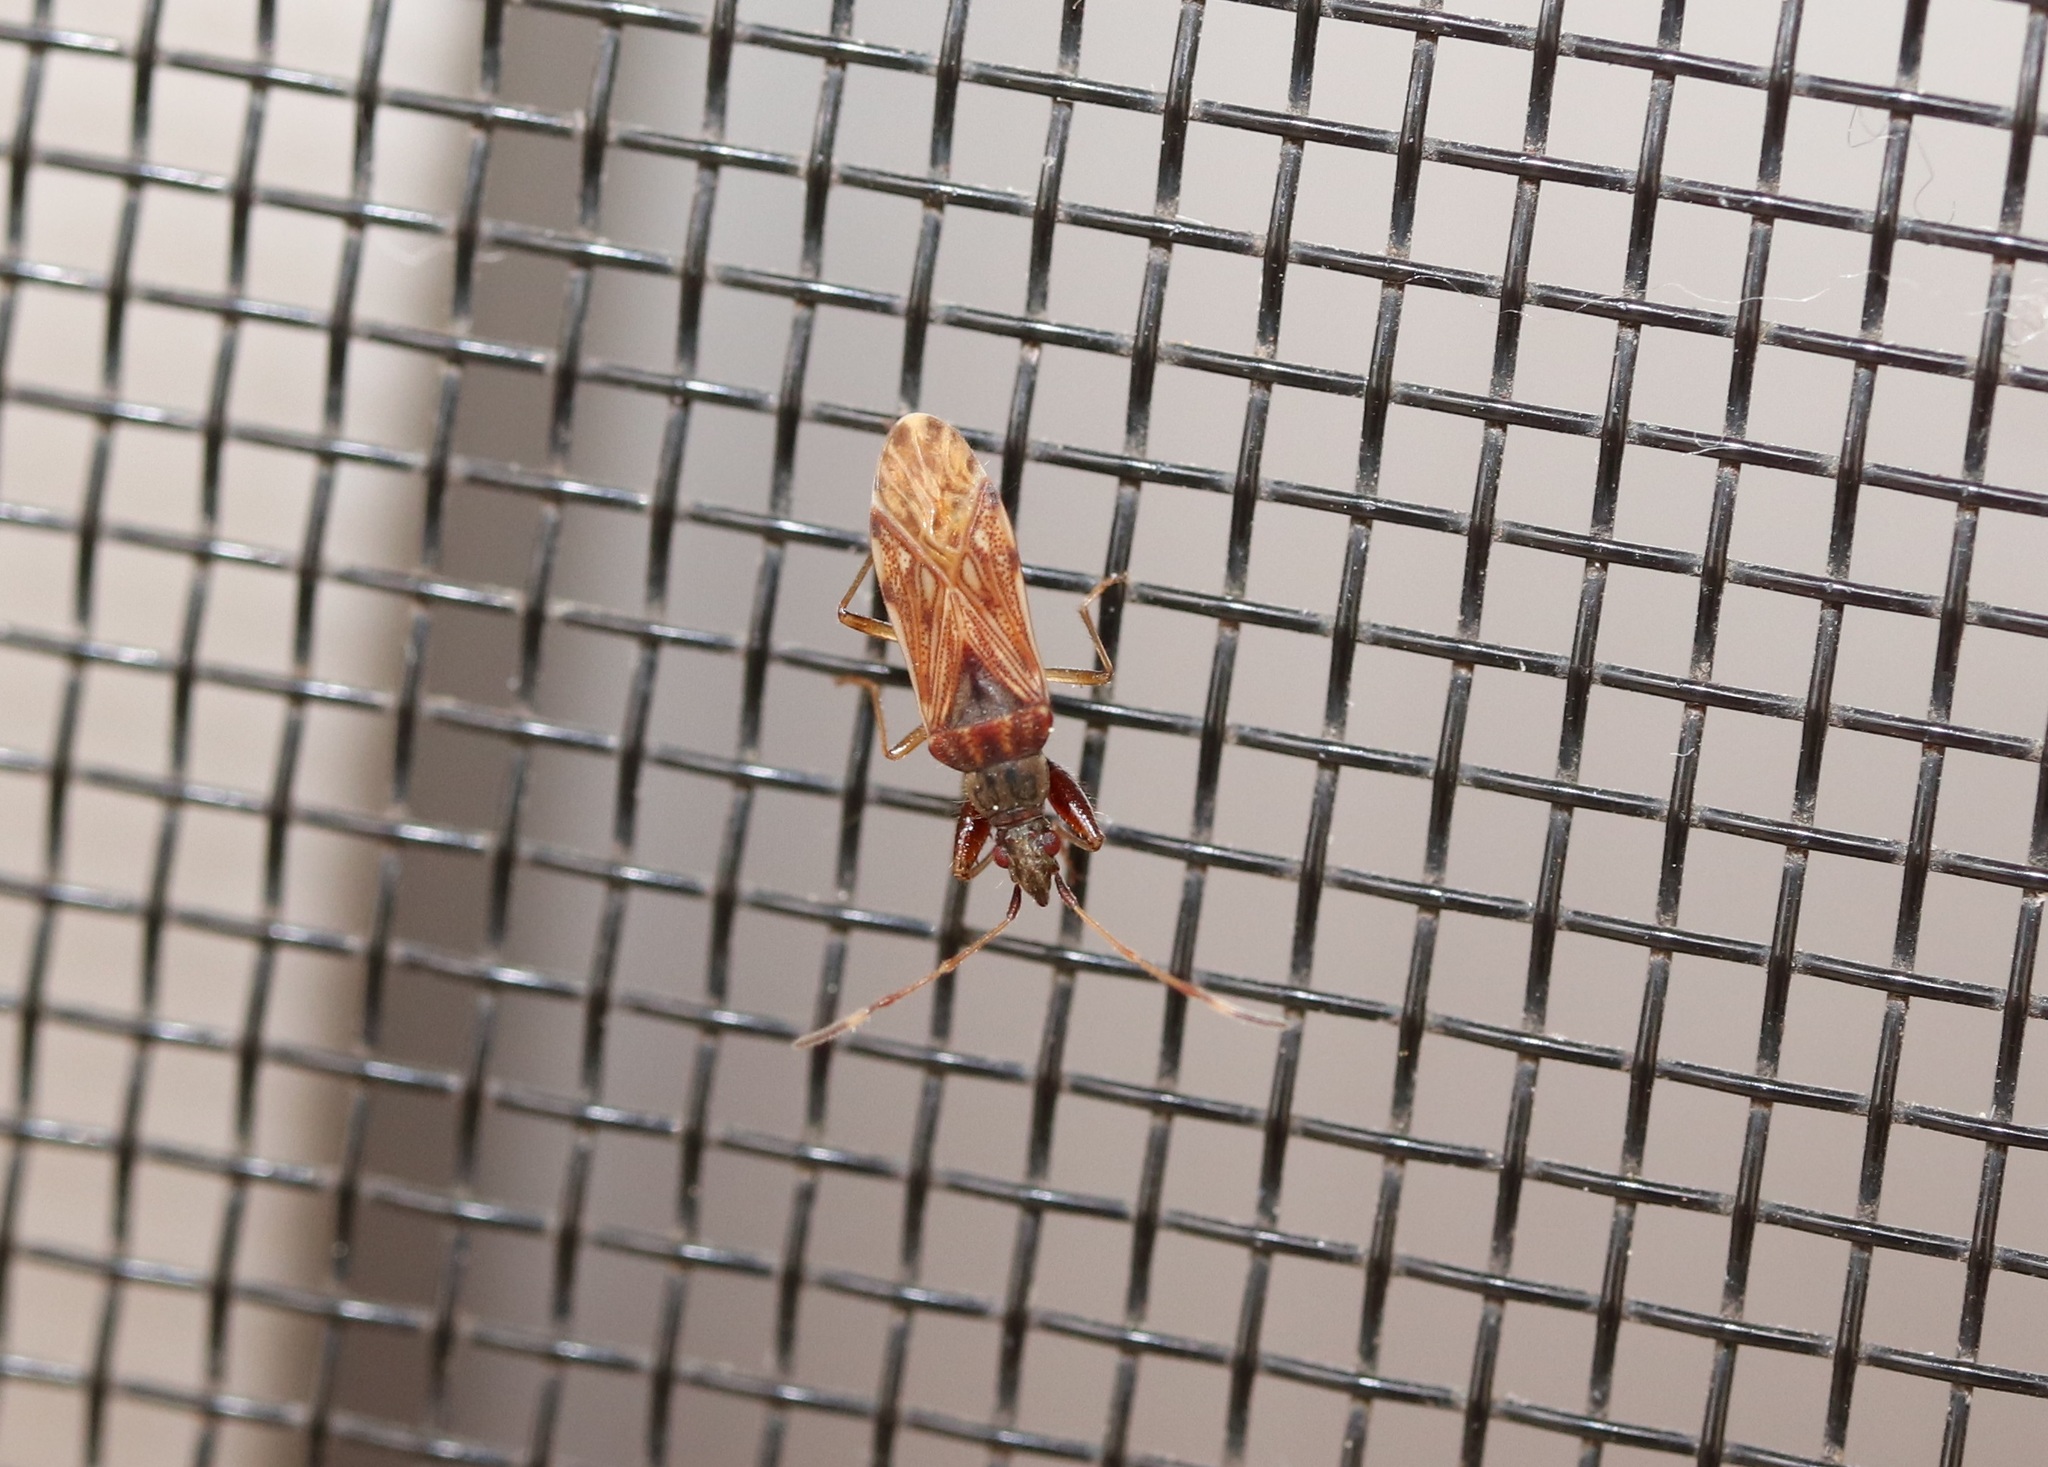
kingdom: Animalia
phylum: Arthropoda
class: Insecta
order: Hemiptera
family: Rhyparochromidae
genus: Pamerana
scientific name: Pamerana scotti
